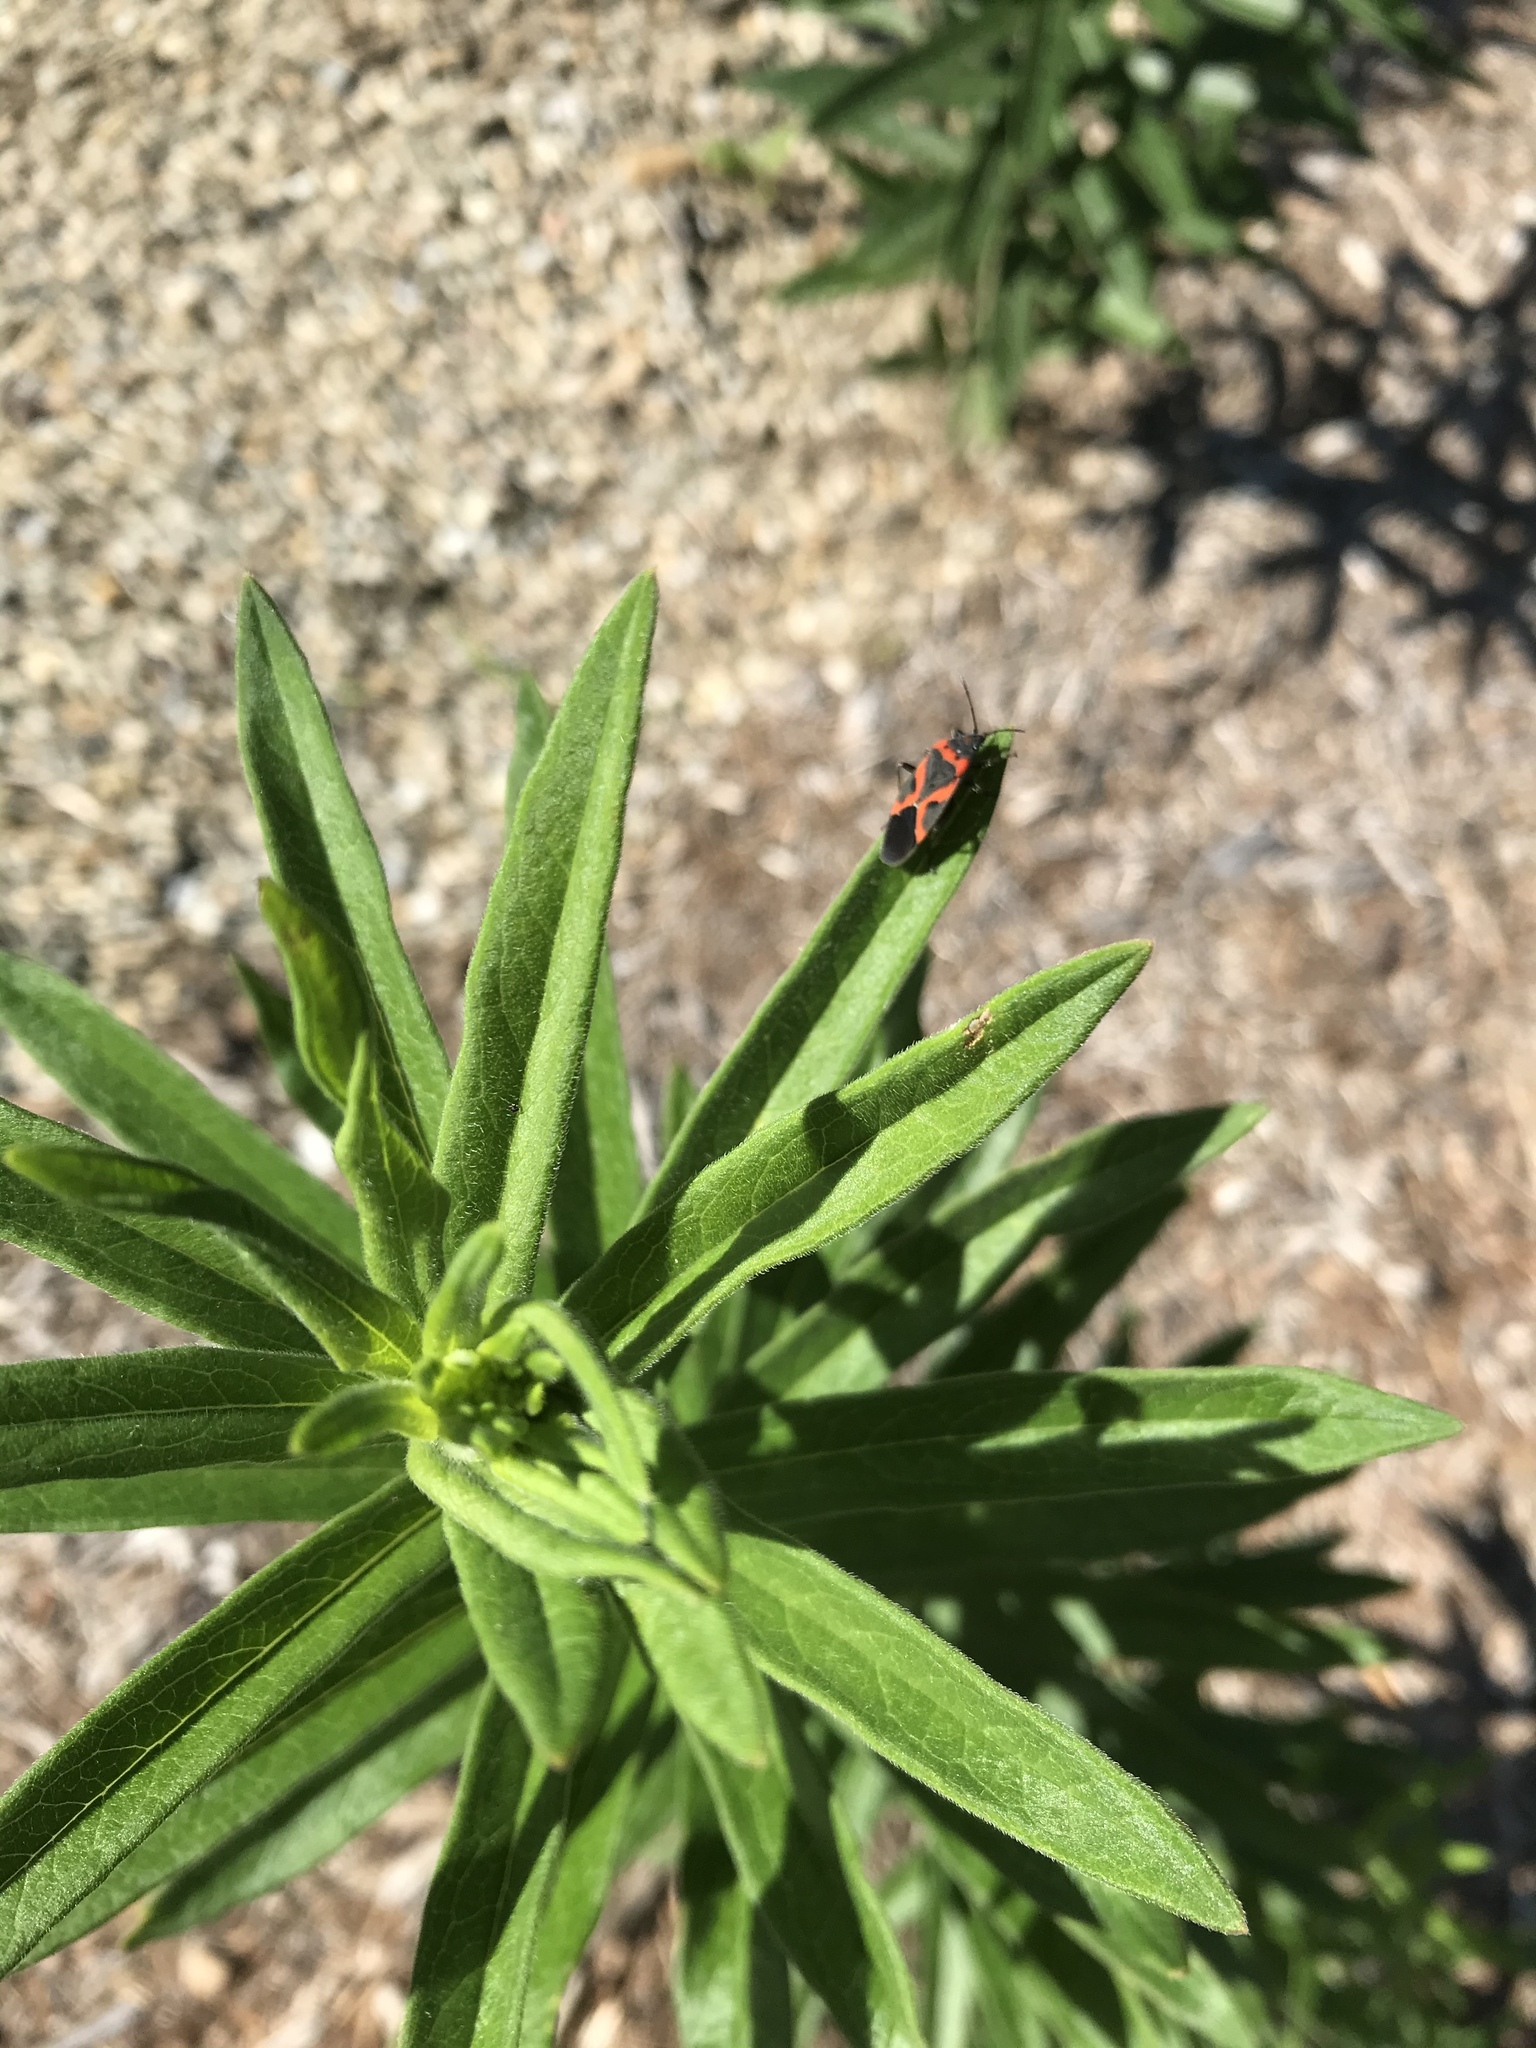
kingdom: Animalia
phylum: Arthropoda
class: Insecta
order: Hemiptera
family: Lygaeidae
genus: Lygaeus
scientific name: Lygaeus kalmii
